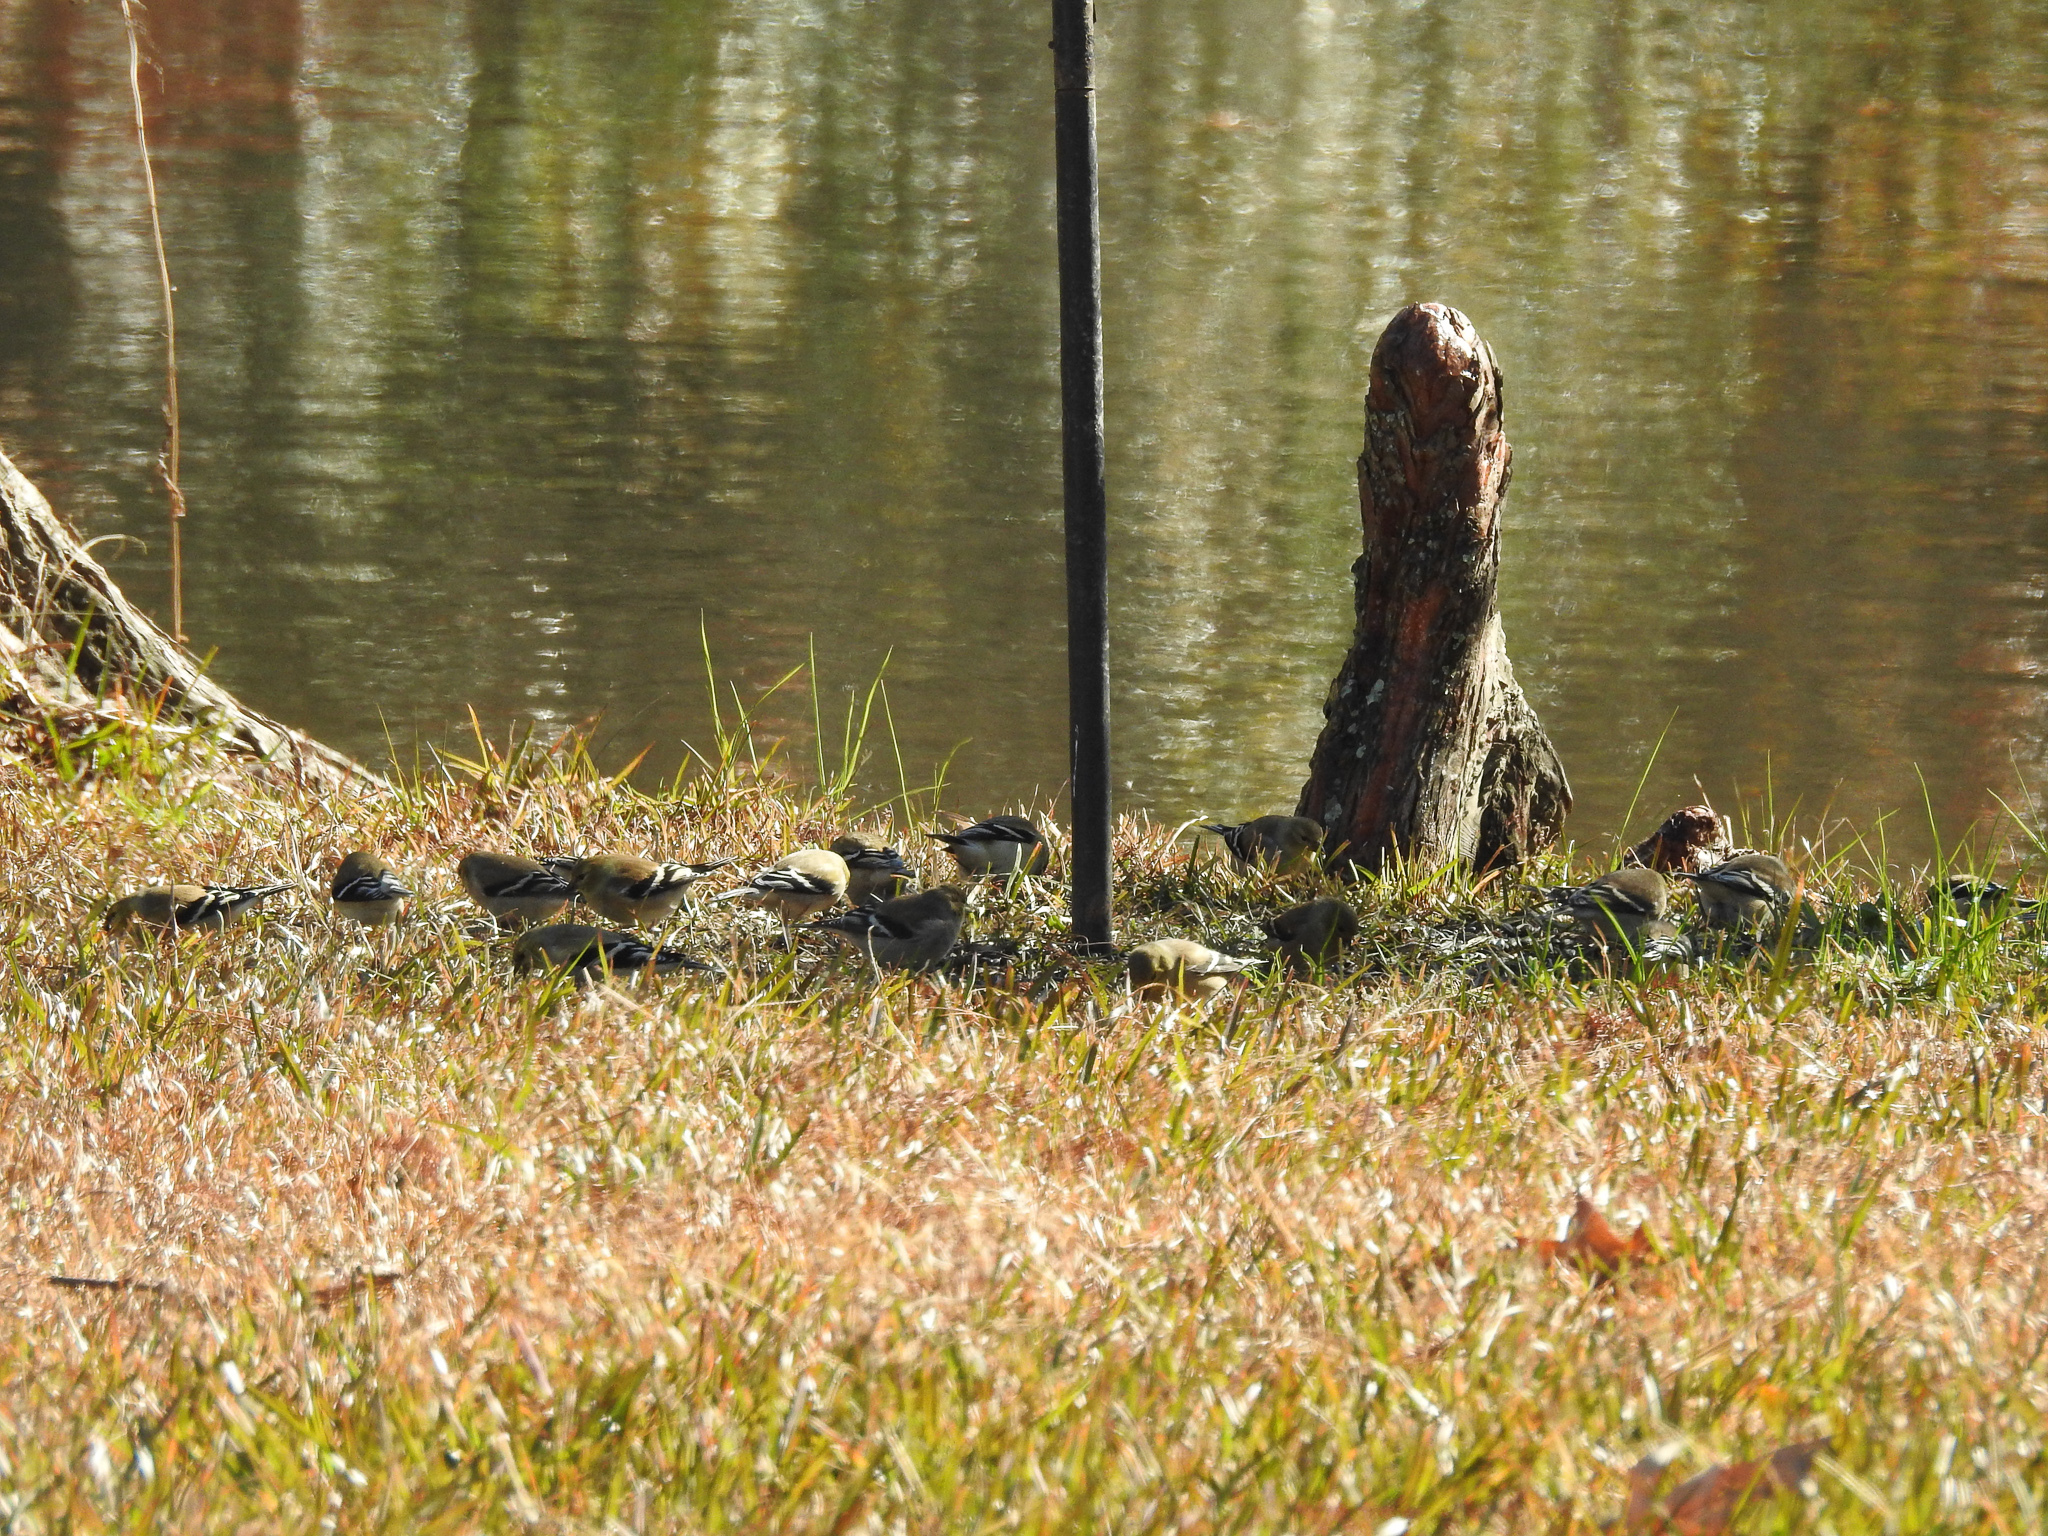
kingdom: Animalia
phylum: Chordata
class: Aves
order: Passeriformes
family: Fringillidae
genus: Spinus
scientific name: Spinus tristis
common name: American goldfinch
